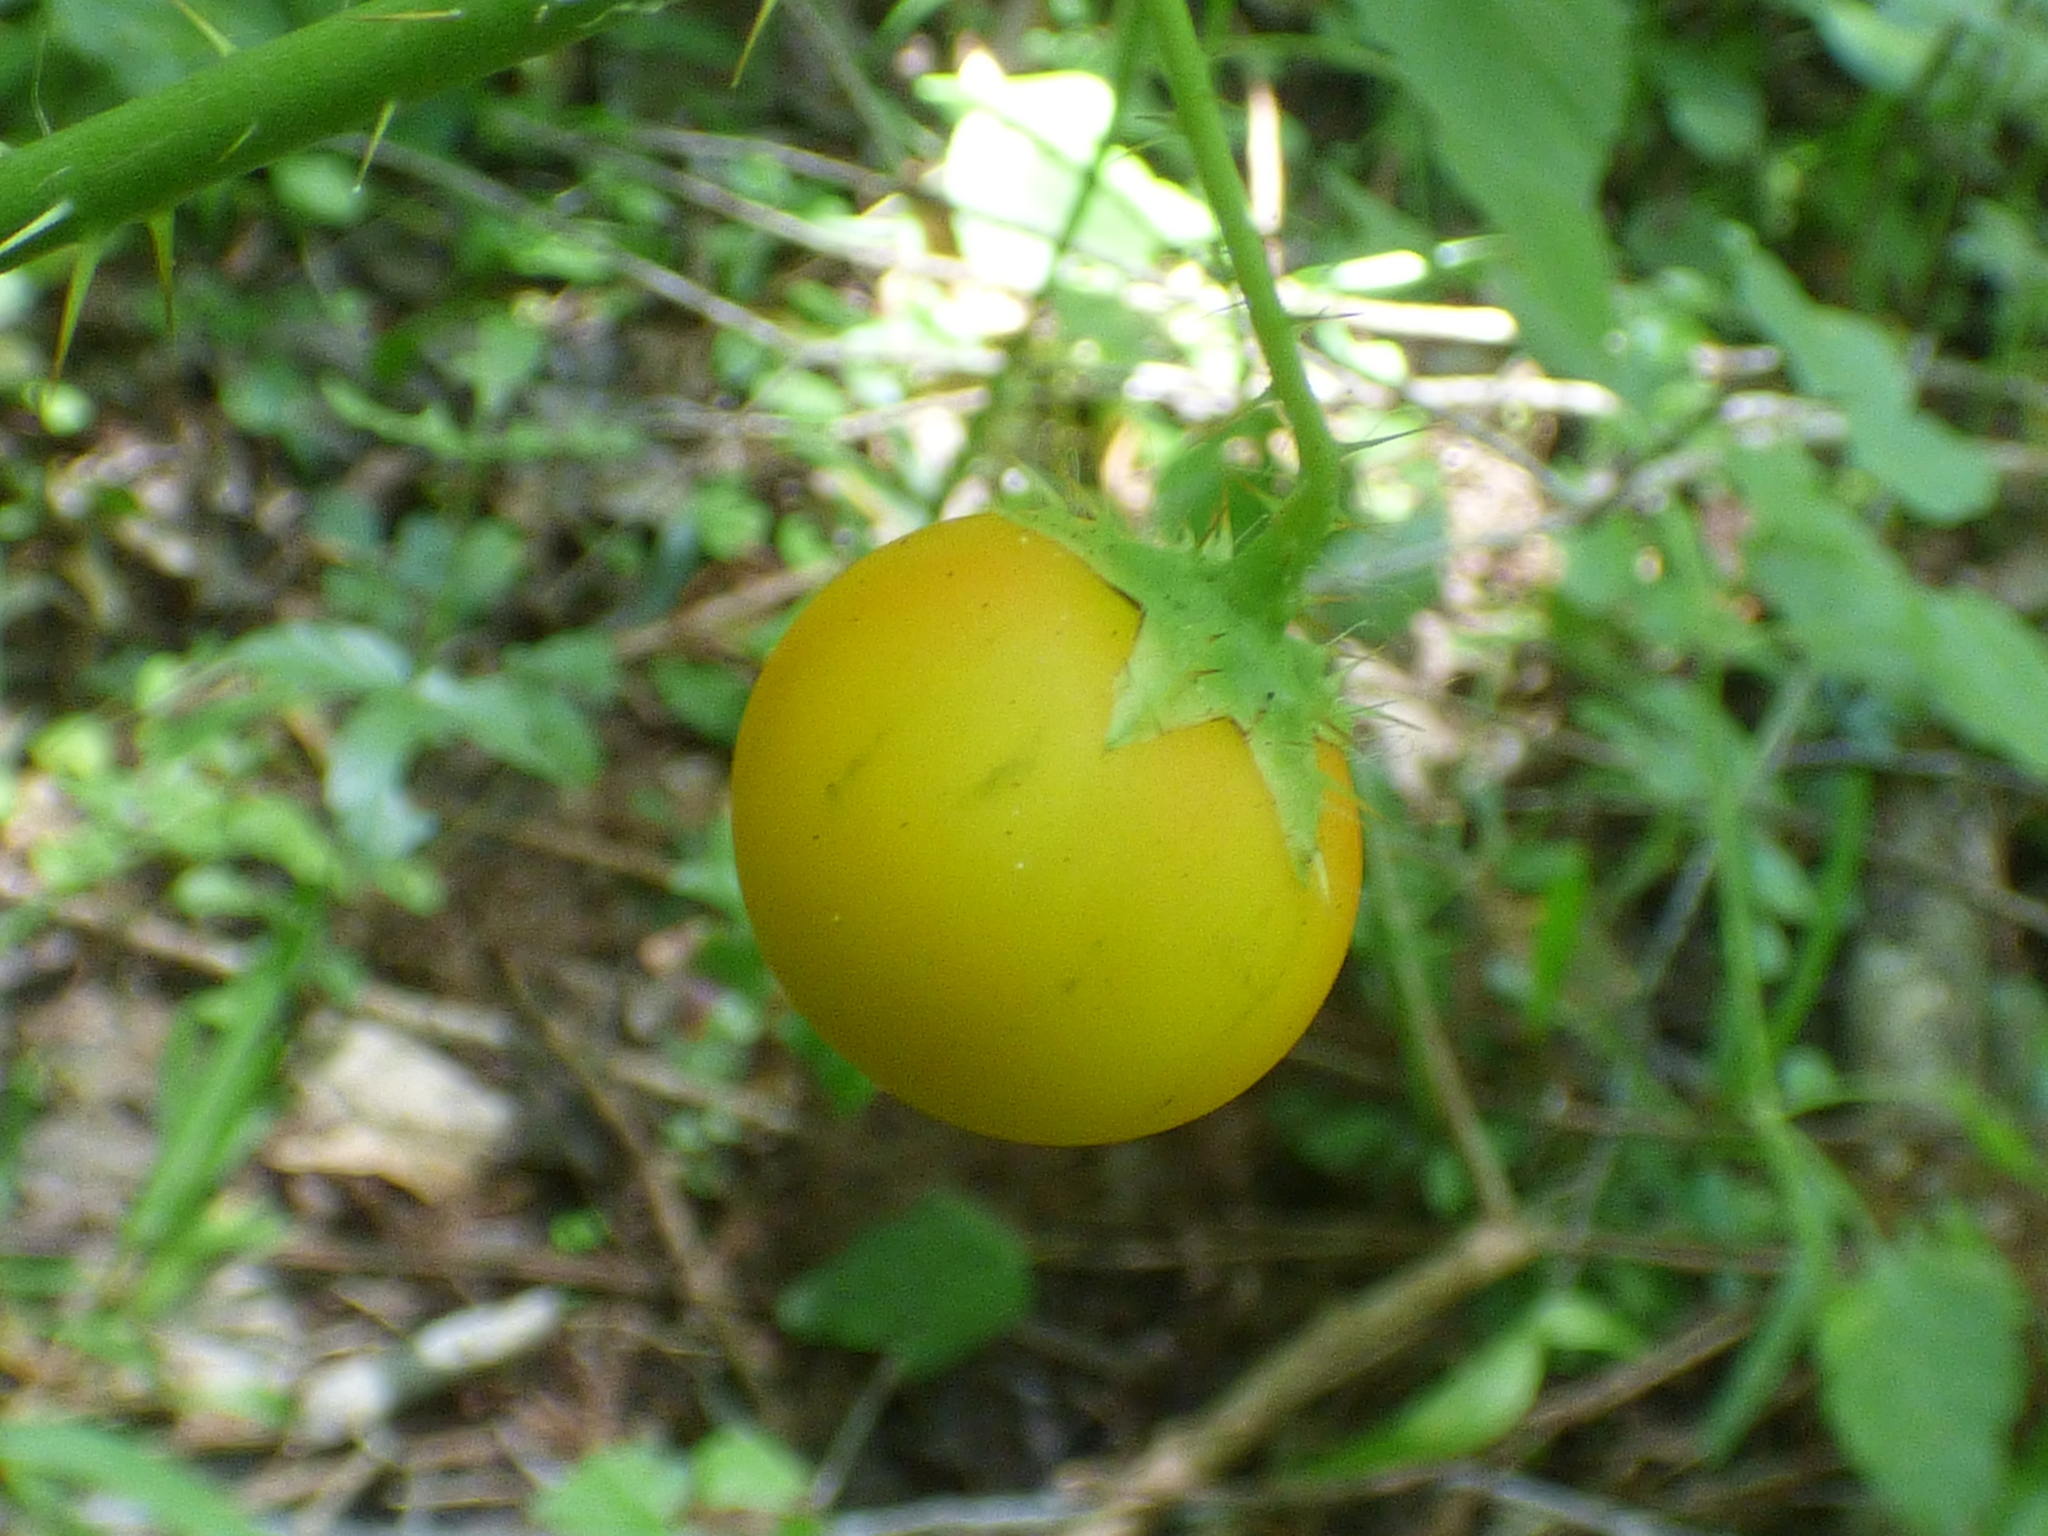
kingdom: Plantae
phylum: Tracheophyta
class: Magnoliopsida
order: Solanales
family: Solanaceae
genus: Solanum
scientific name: Solanum capsicoides
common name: Cockroach berry
